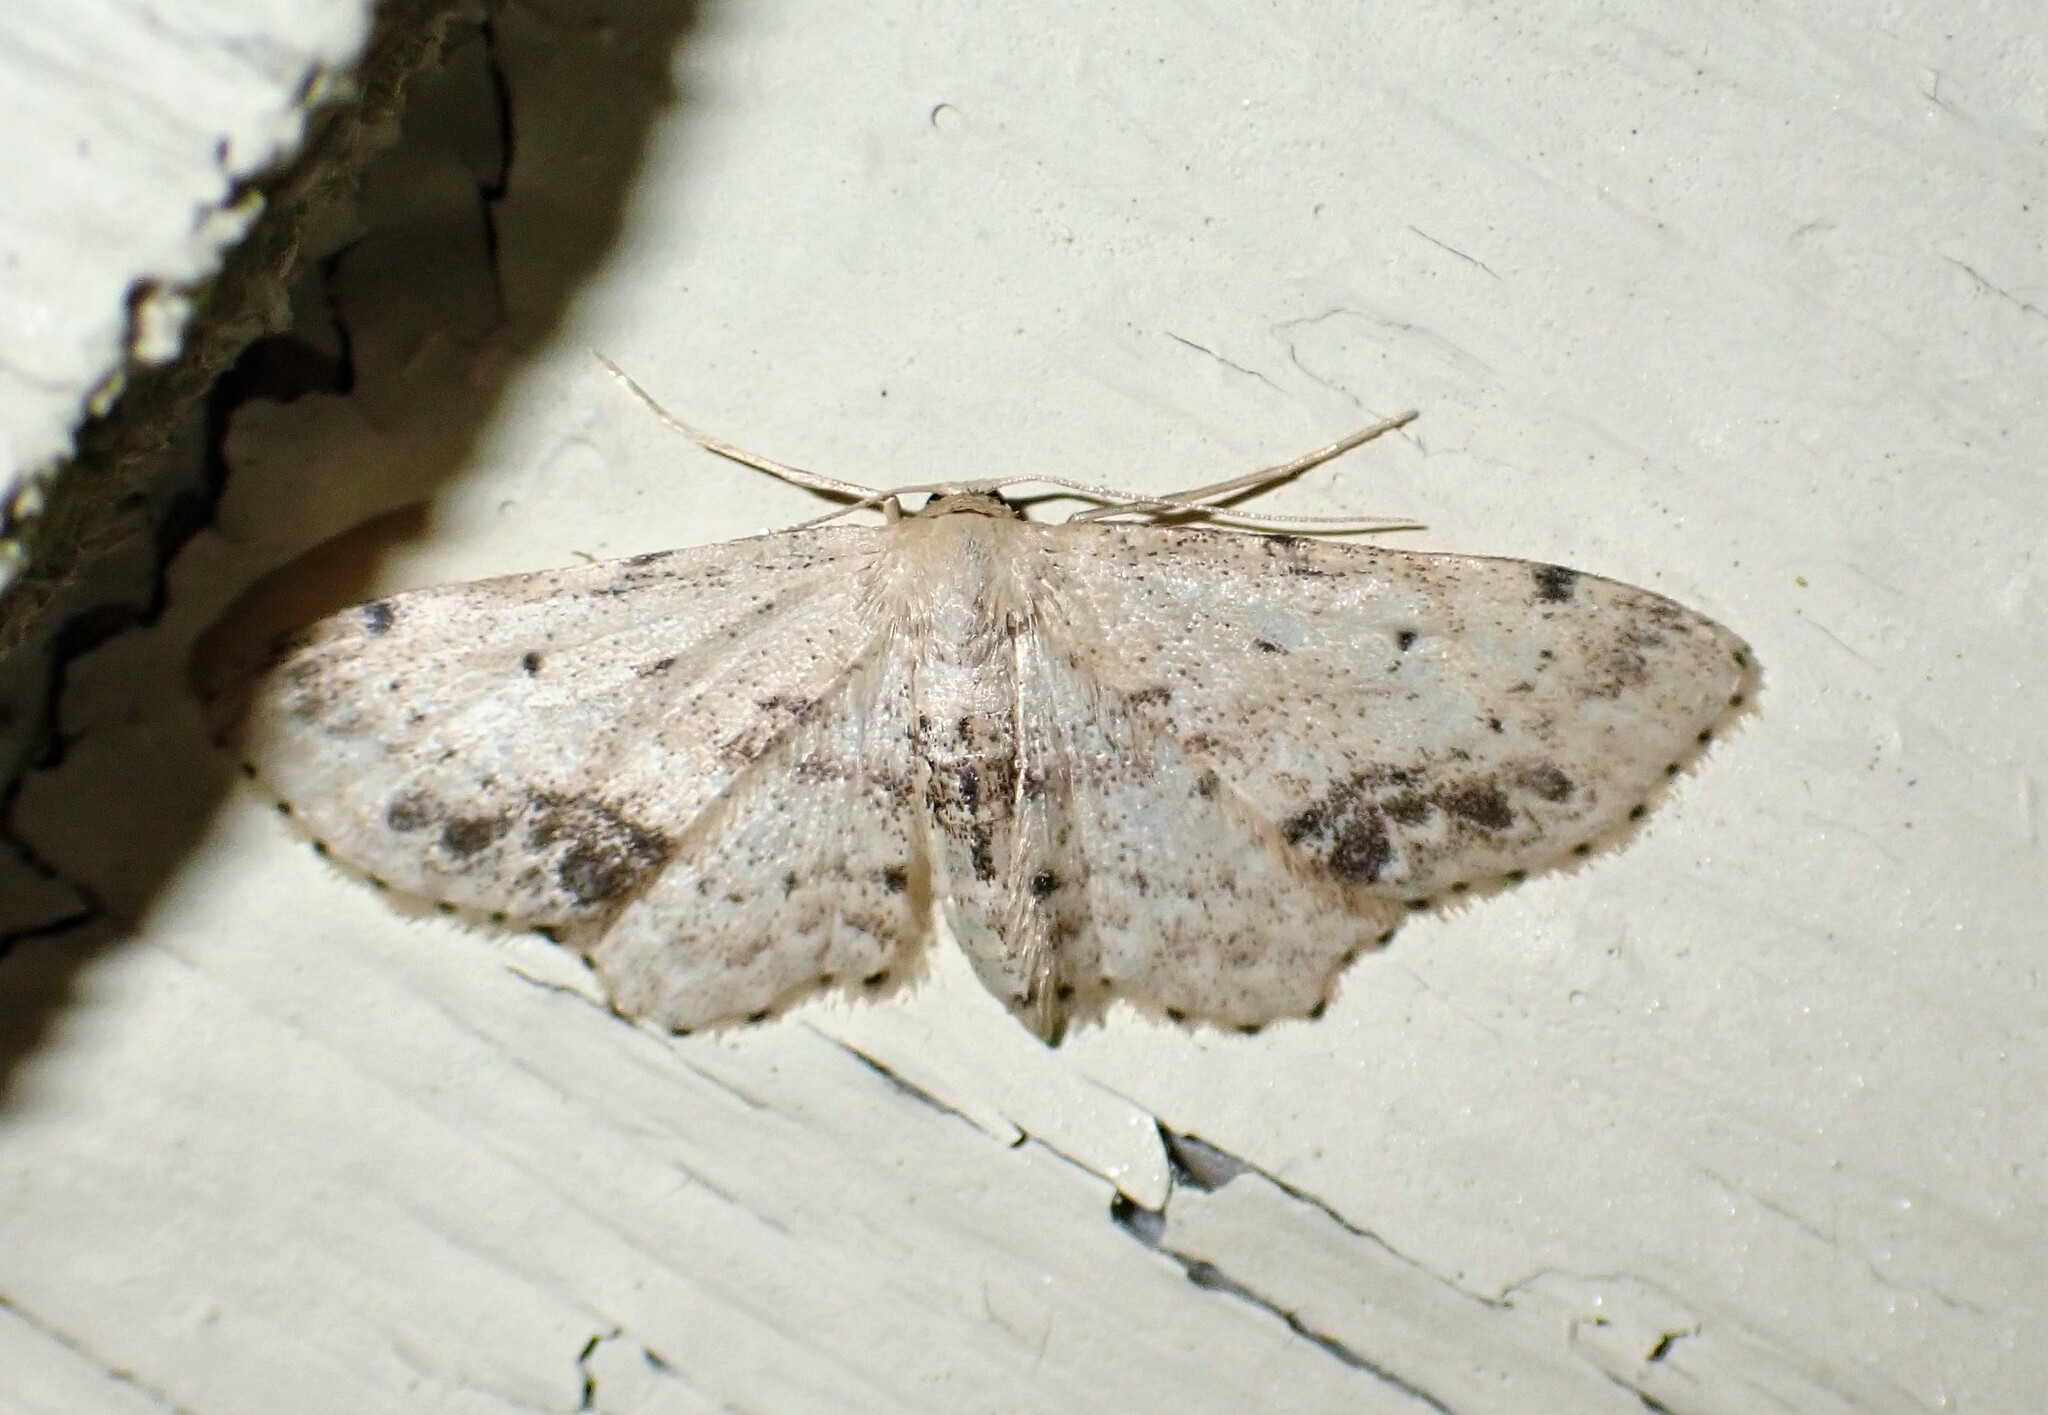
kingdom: Animalia
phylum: Arthropoda
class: Insecta
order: Lepidoptera
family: Geometridae
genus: Idaea
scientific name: Idaea dimidiata
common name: Single-dotted wave
